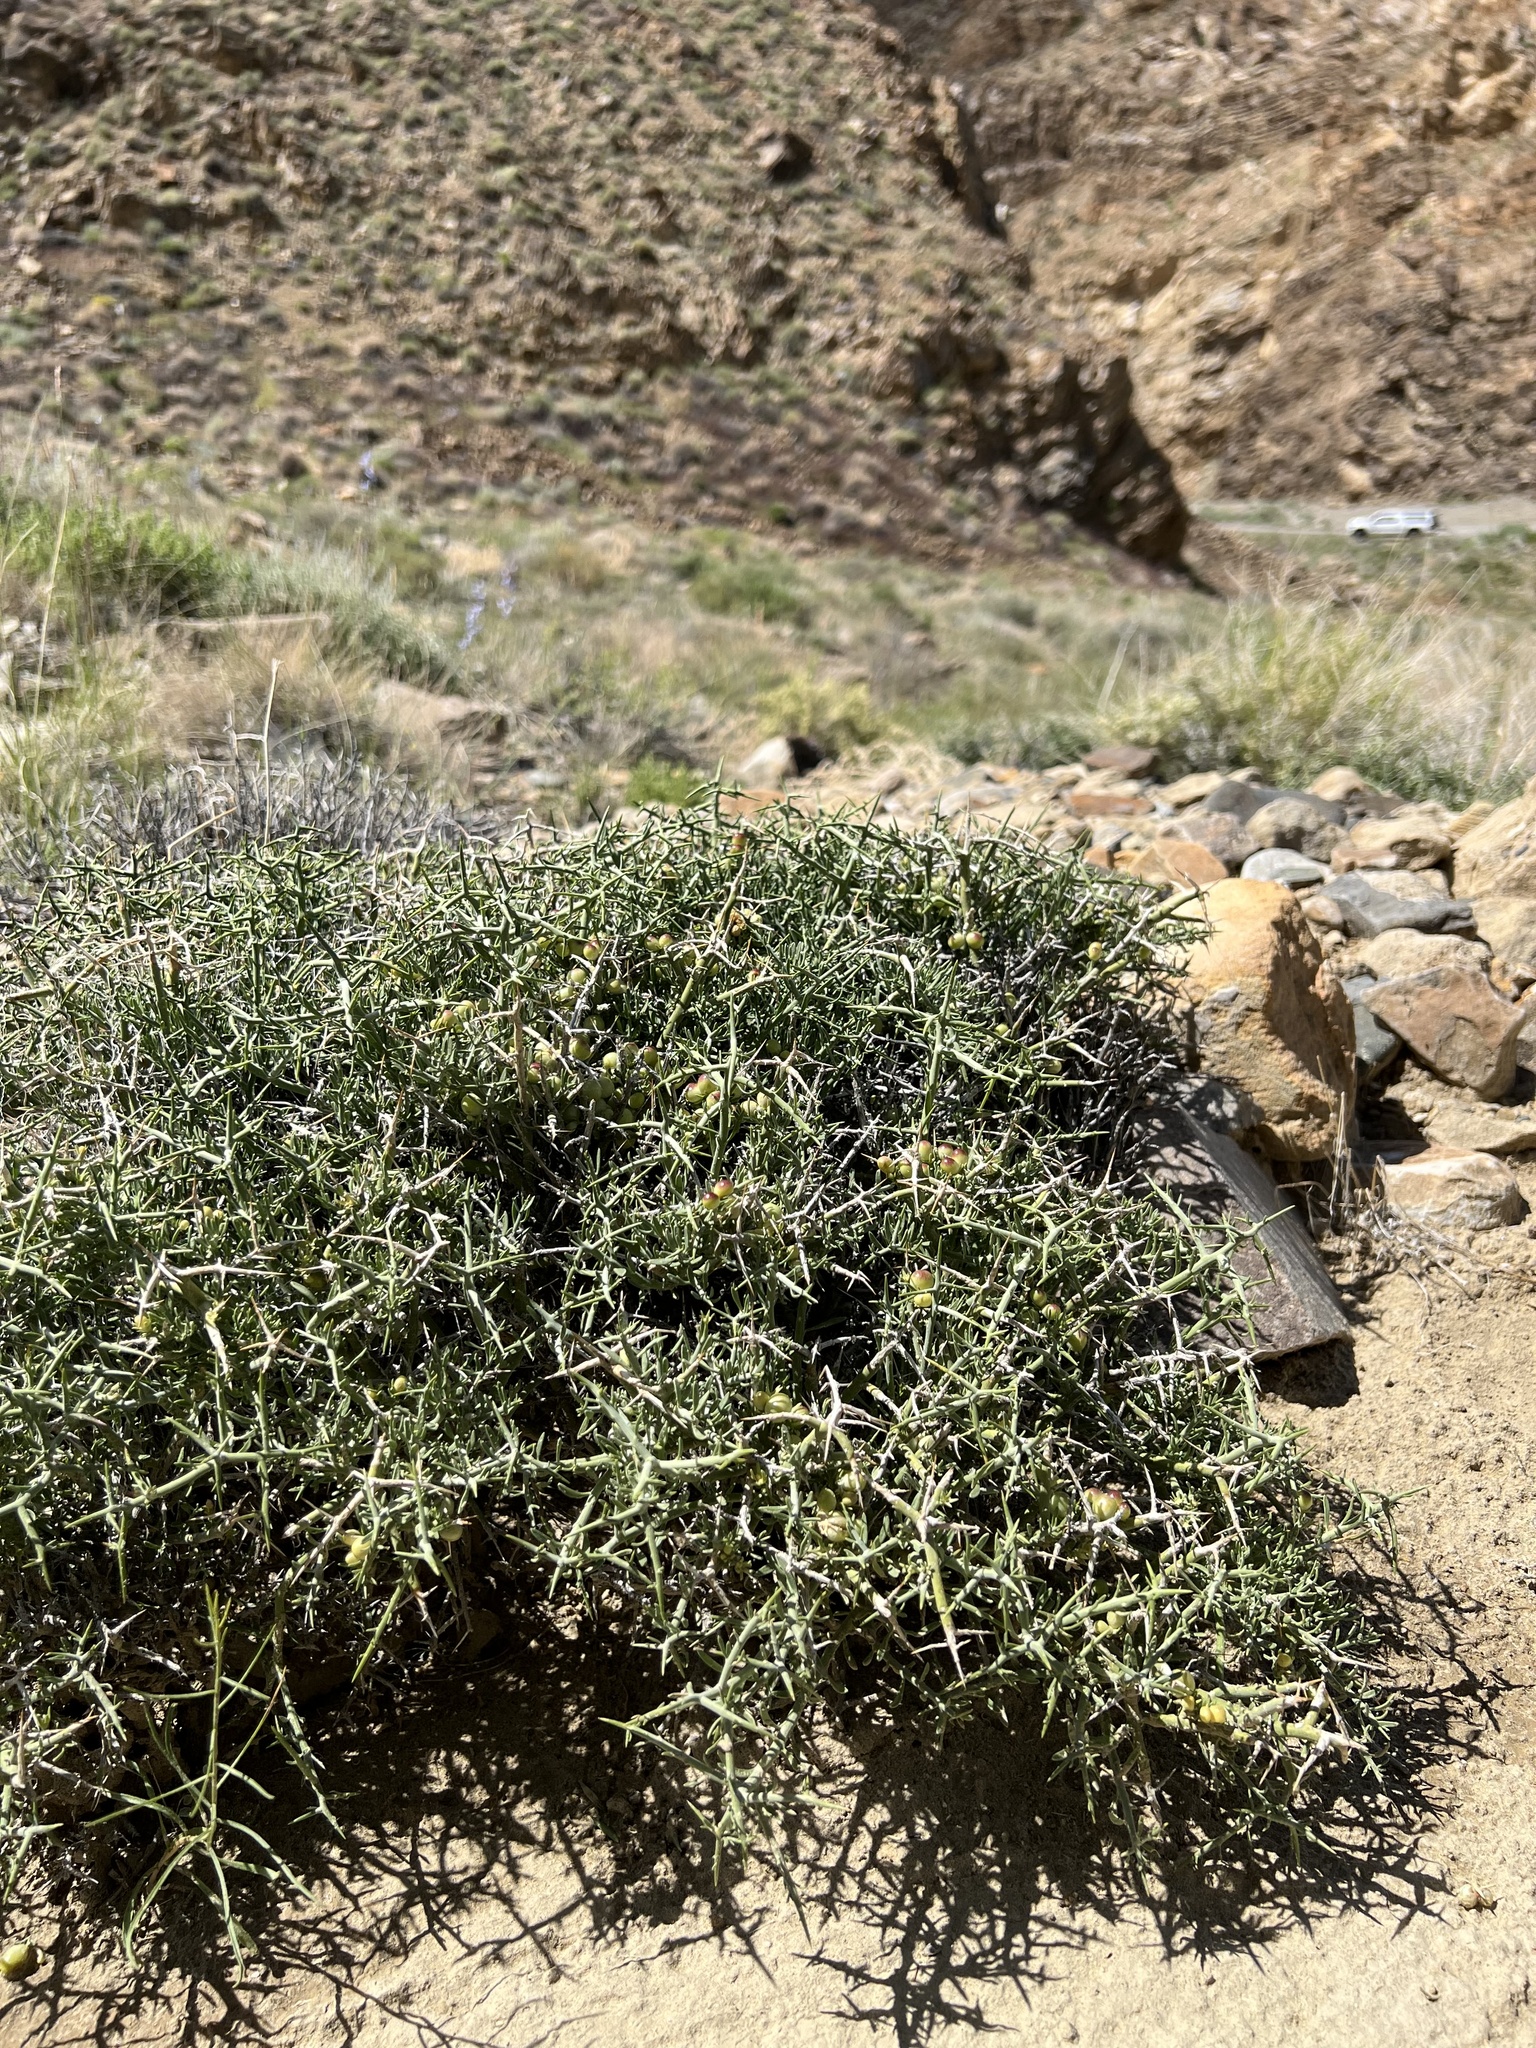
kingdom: Plantae
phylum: Tracheophyta
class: Magnoliopsida
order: Lamiales
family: Oleaceae
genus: Menodora
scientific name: Menodora spinescens
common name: Spiny menodora
